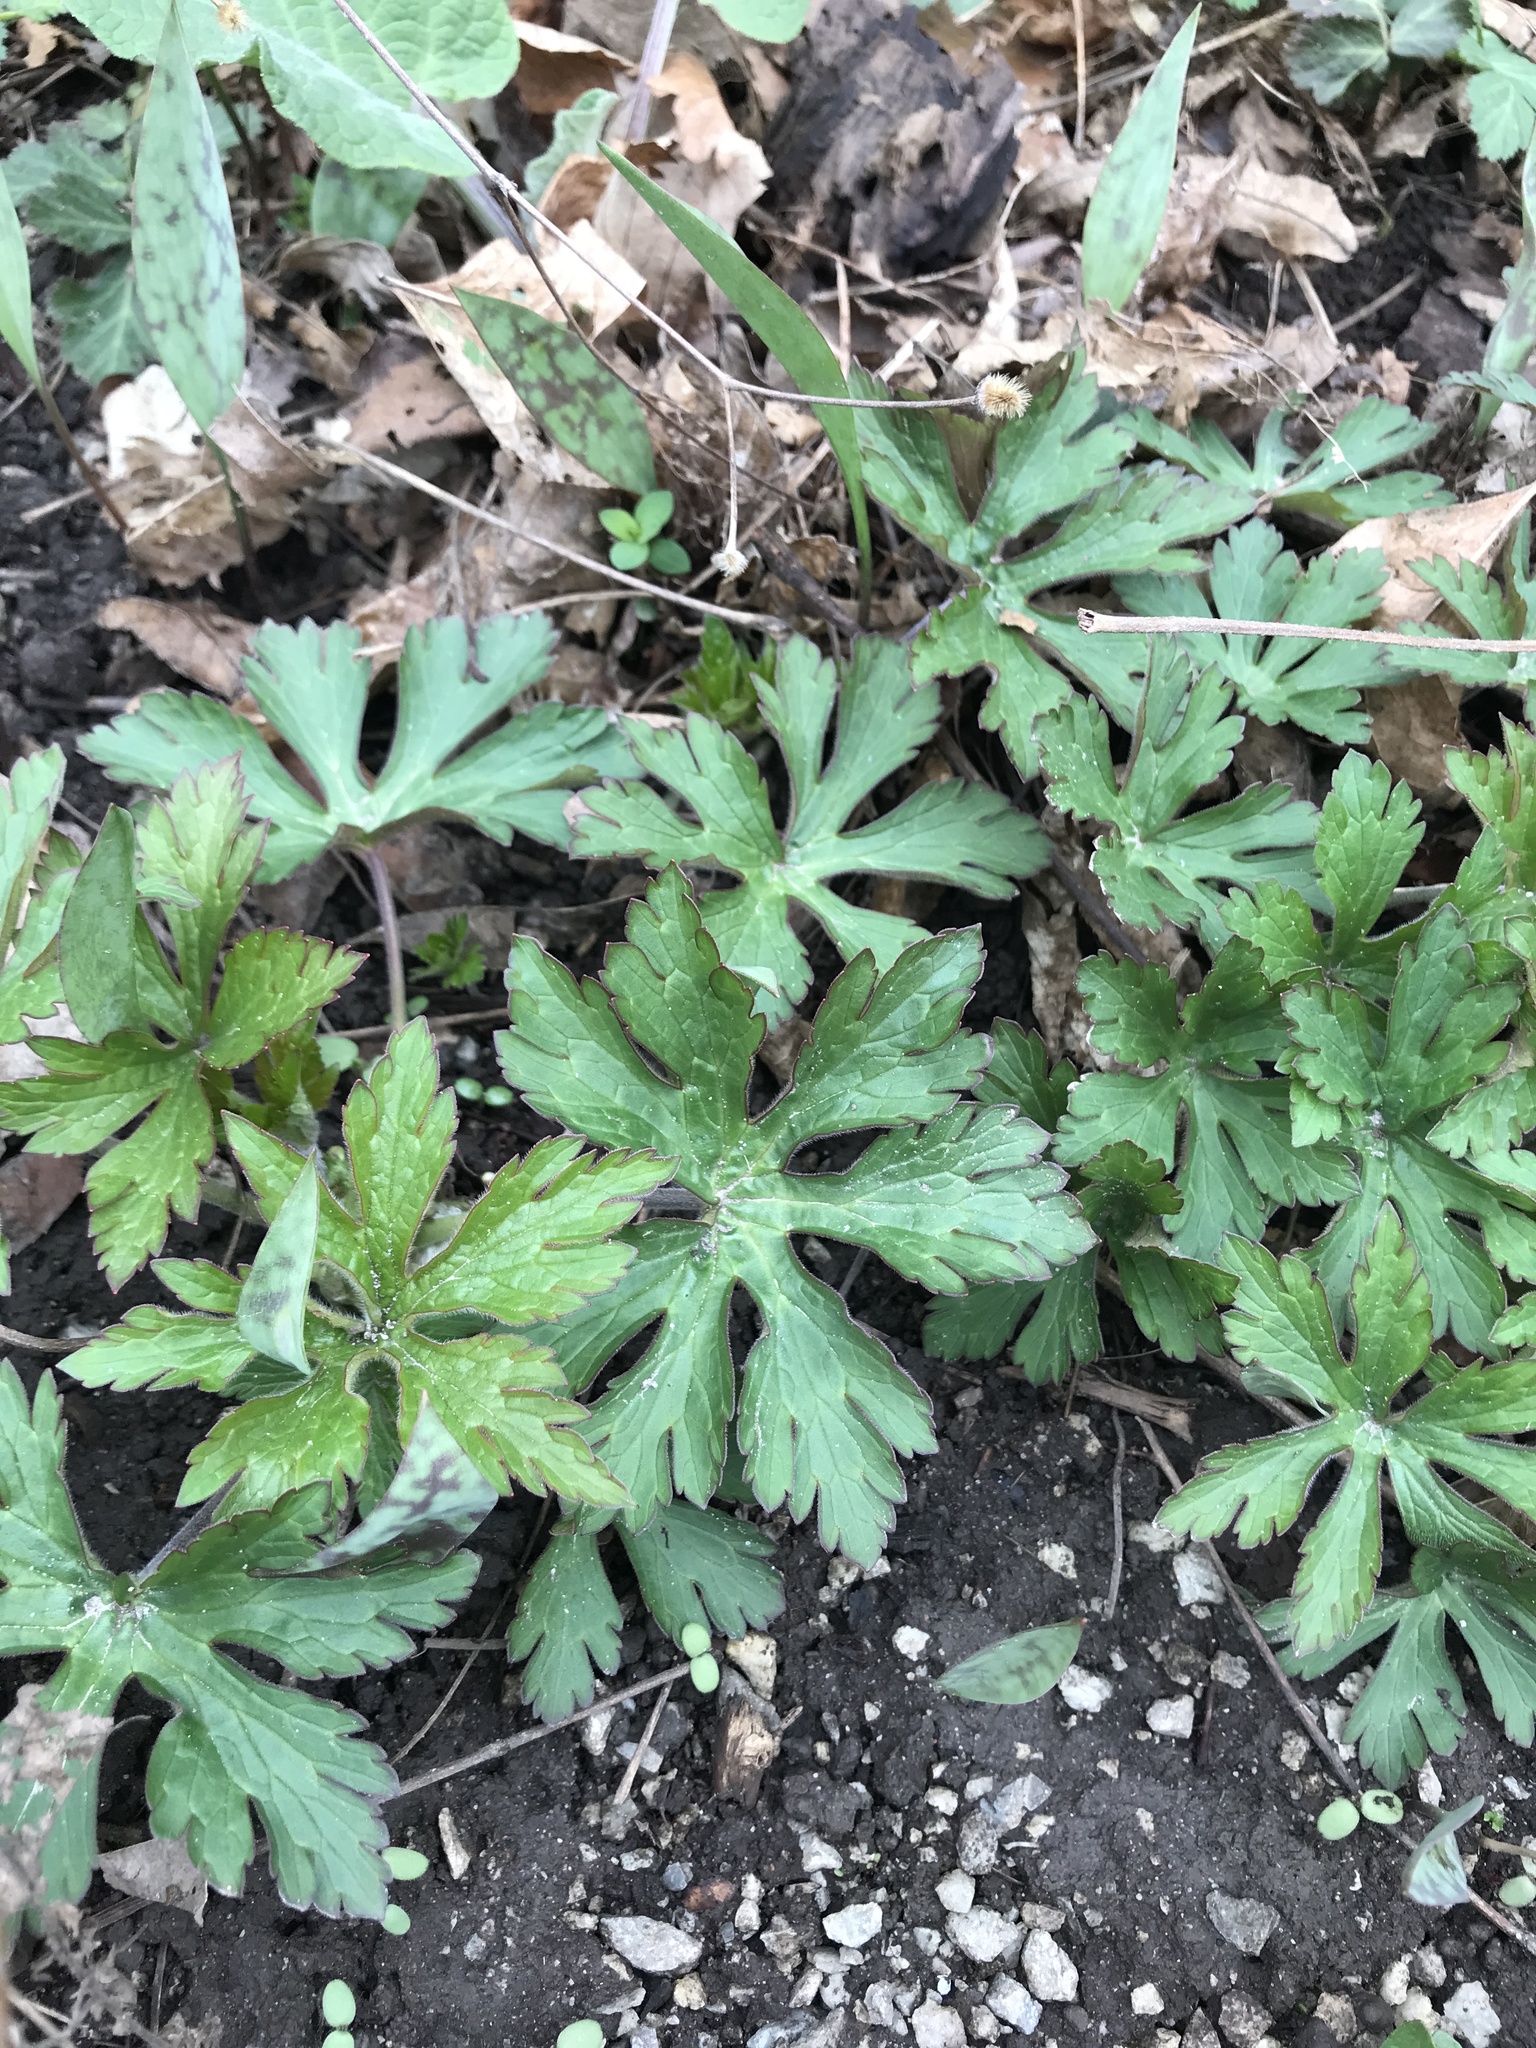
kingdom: Plantae
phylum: Tracheophyta
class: Magnoliopsida
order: Geraniales
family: Geraniaceae
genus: Geranium
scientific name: Geranium maculatum
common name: Spotted geranium
